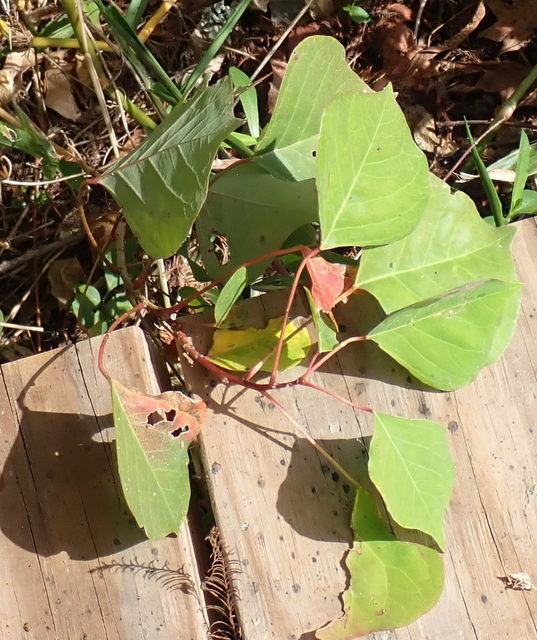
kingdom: Plantae
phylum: Tracheophyta
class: Magnoliopsida
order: Malpighiales
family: Euphorbiaceae
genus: Triadica
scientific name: Triadica sebifera
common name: Chinese tallow
